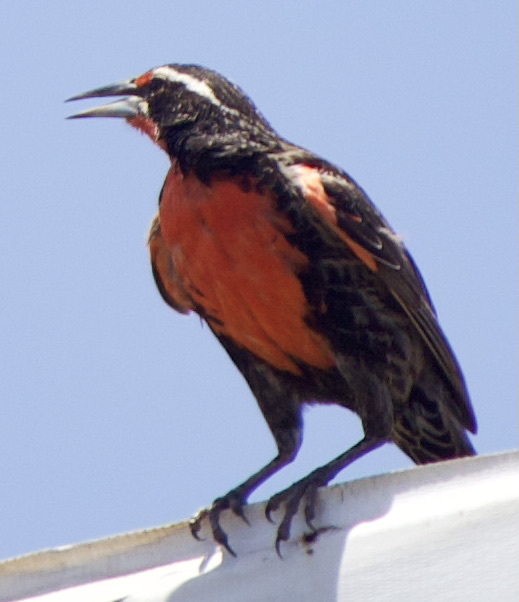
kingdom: Animalia
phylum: Chordata
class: Aves
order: Passeriformes
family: Icteridae
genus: Sturnella
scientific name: Sturnella loyca
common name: Long-tailed meadowlark
